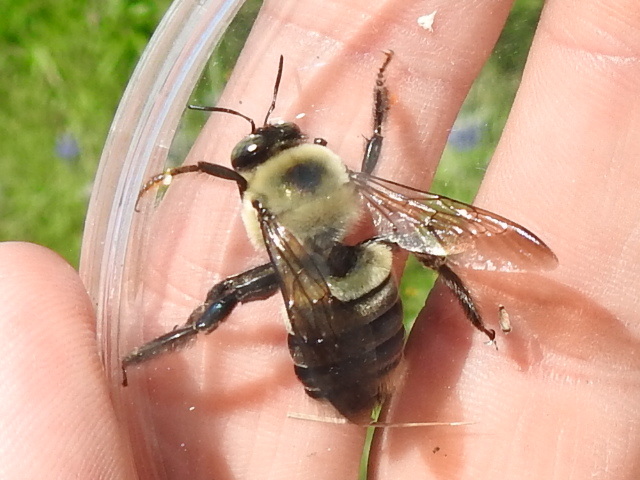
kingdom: Animalia
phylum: Arthropoda
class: Insecta
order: Hymenoptera
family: Apidae
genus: Xylocopa
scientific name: Xylocopa virginica
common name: Carpenter bee
